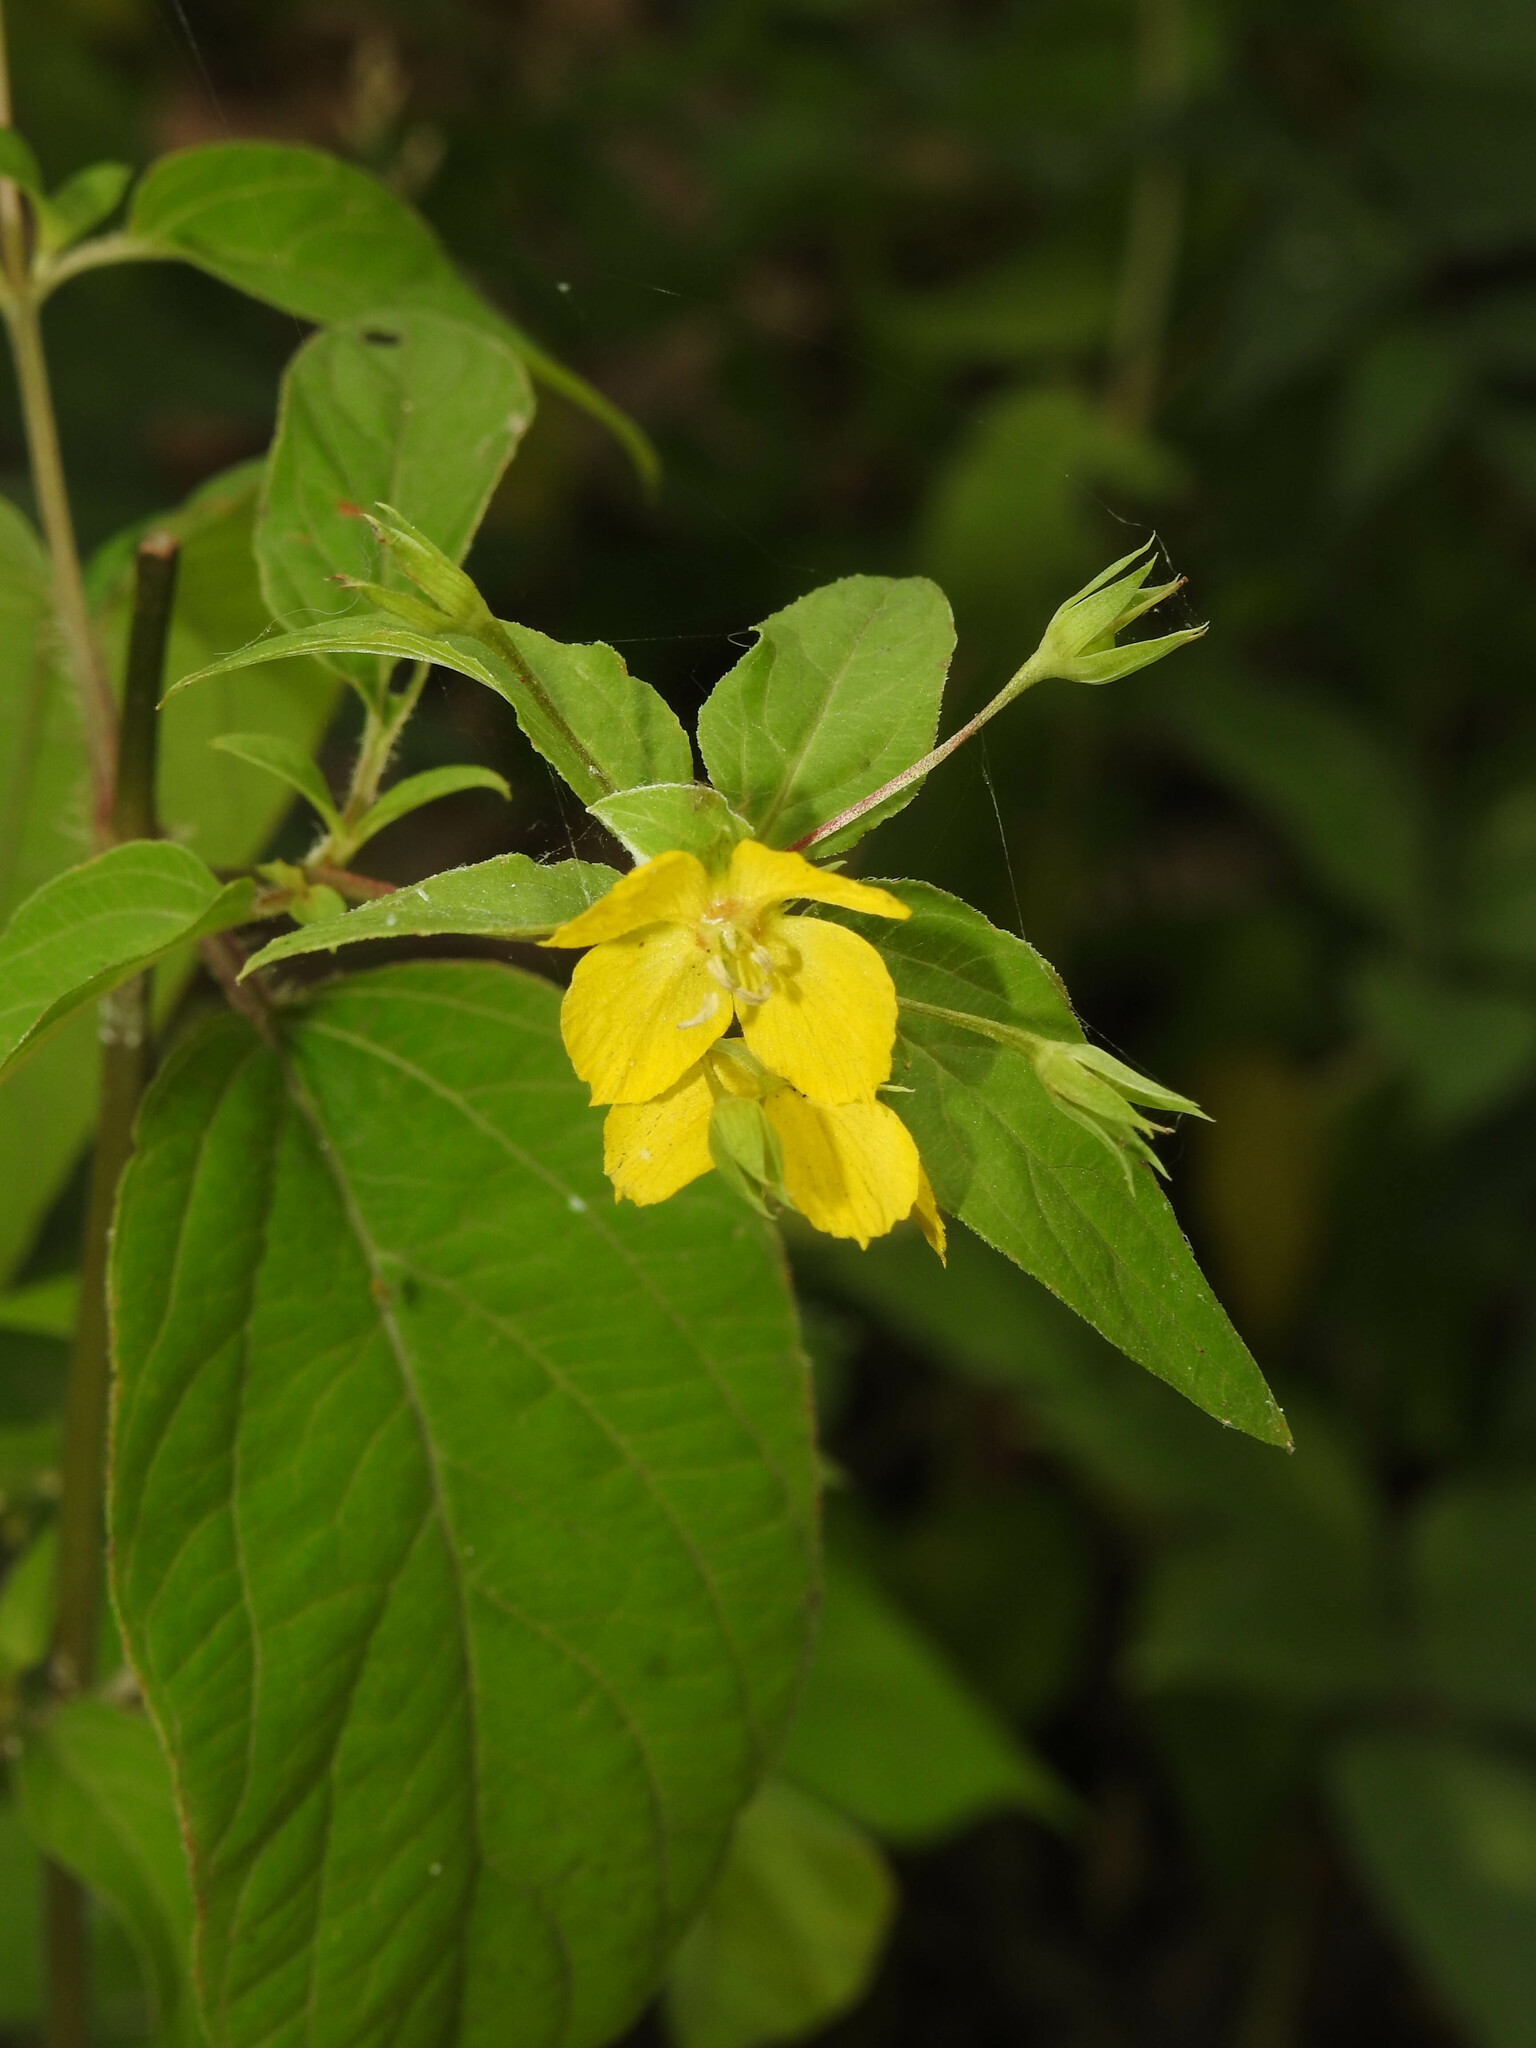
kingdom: Plantae
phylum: Tracheophyta
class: Magnoliopsida
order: Ericales
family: Primulaceae
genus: Lysimachia
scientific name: Lysimachia ciliata
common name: Fringed loosestrife
